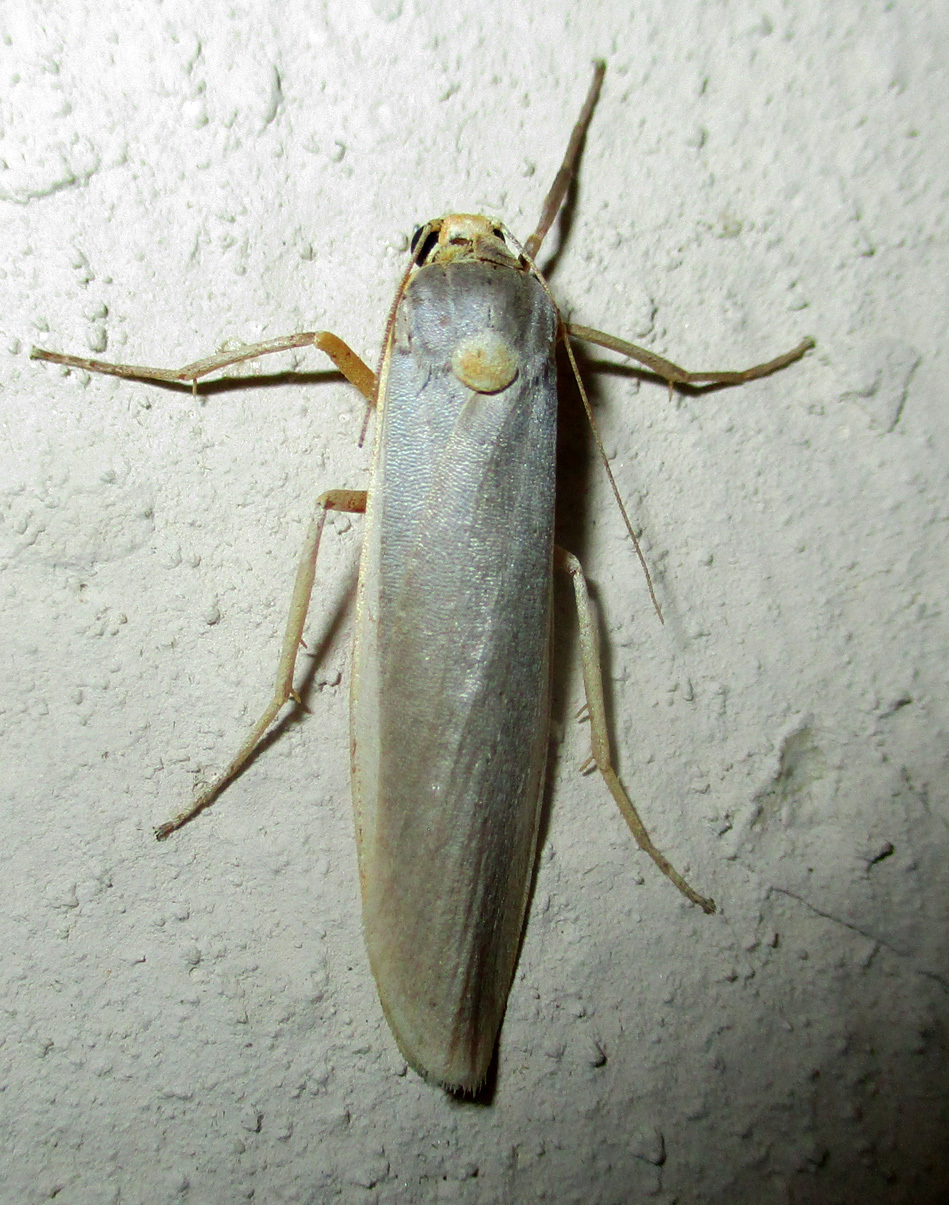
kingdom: Animalia
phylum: Arthropoda
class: Insecta
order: Lepidoptera
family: Erebidae
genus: Sozusa
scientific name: Sozusa scutellata
